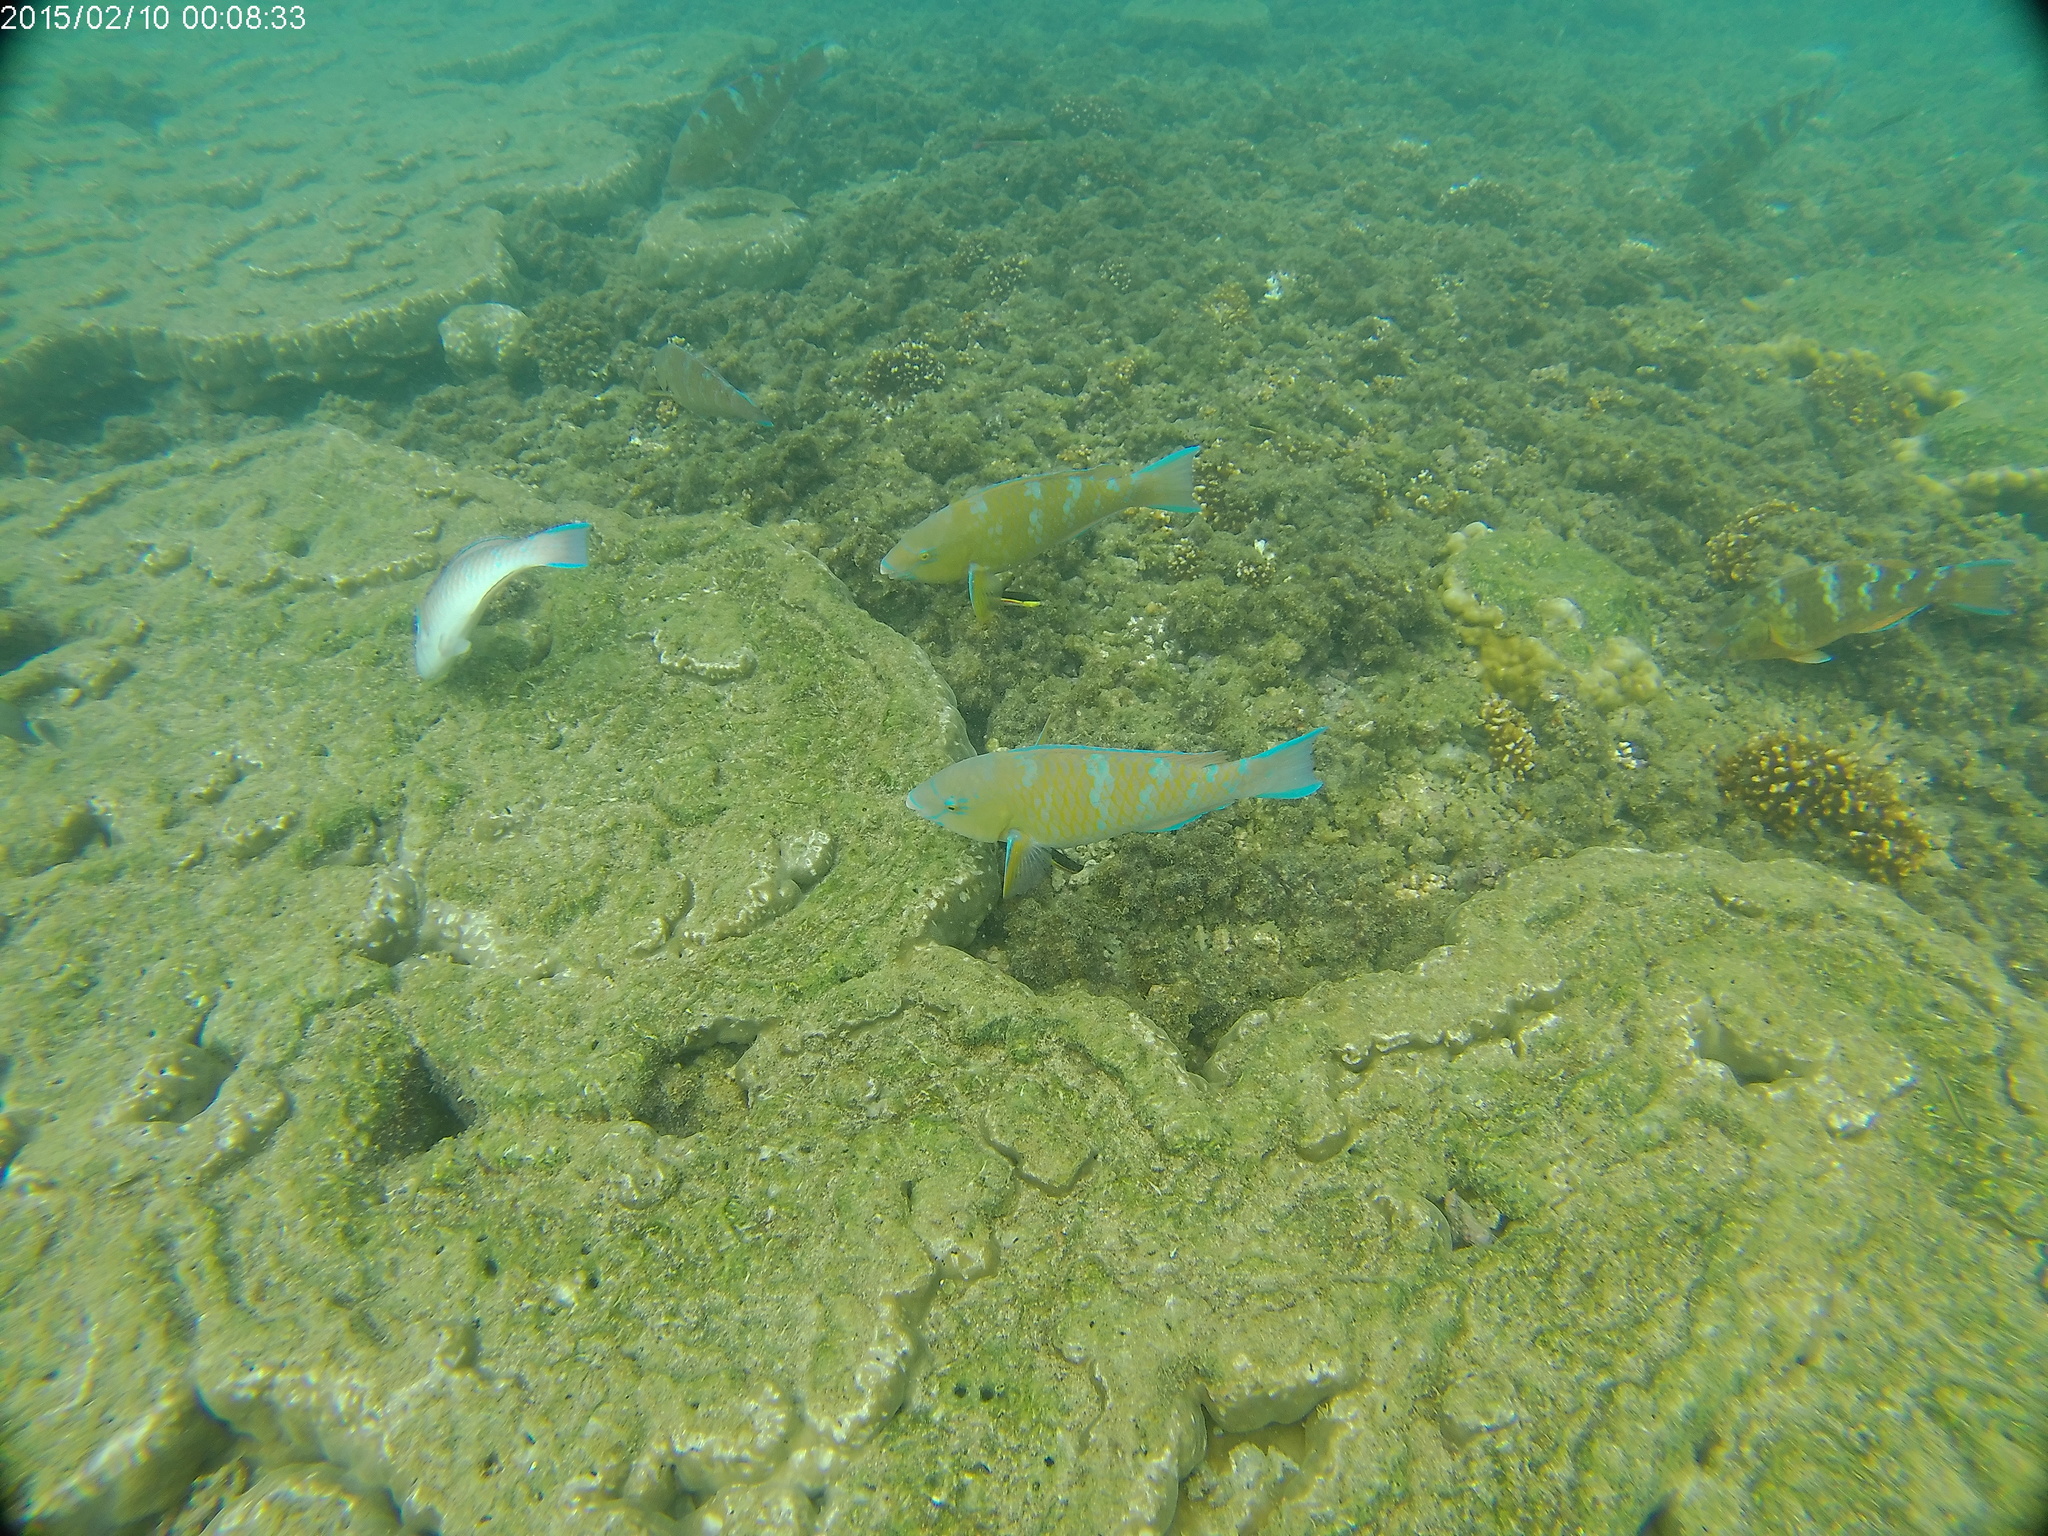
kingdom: Animalia
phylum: Chordata
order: Perciformes
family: Scaridae
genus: Scarus
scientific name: Scarus ghobban
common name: Blue-barred parrotfish
